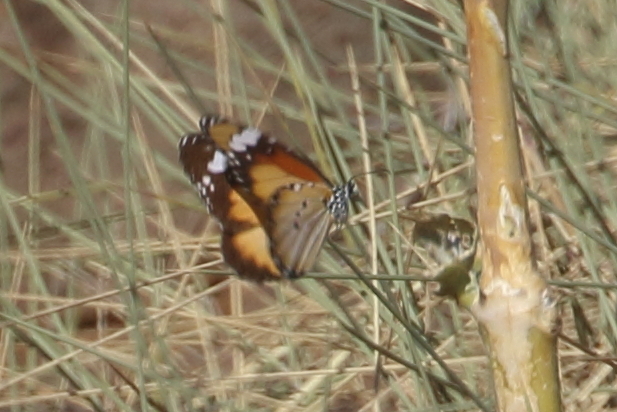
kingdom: Animalia
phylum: Arthropoda
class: Insecta
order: Lepidoptera
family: Nymphalidae
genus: Danaus
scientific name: Danaus chrysippus
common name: Plain tiger
